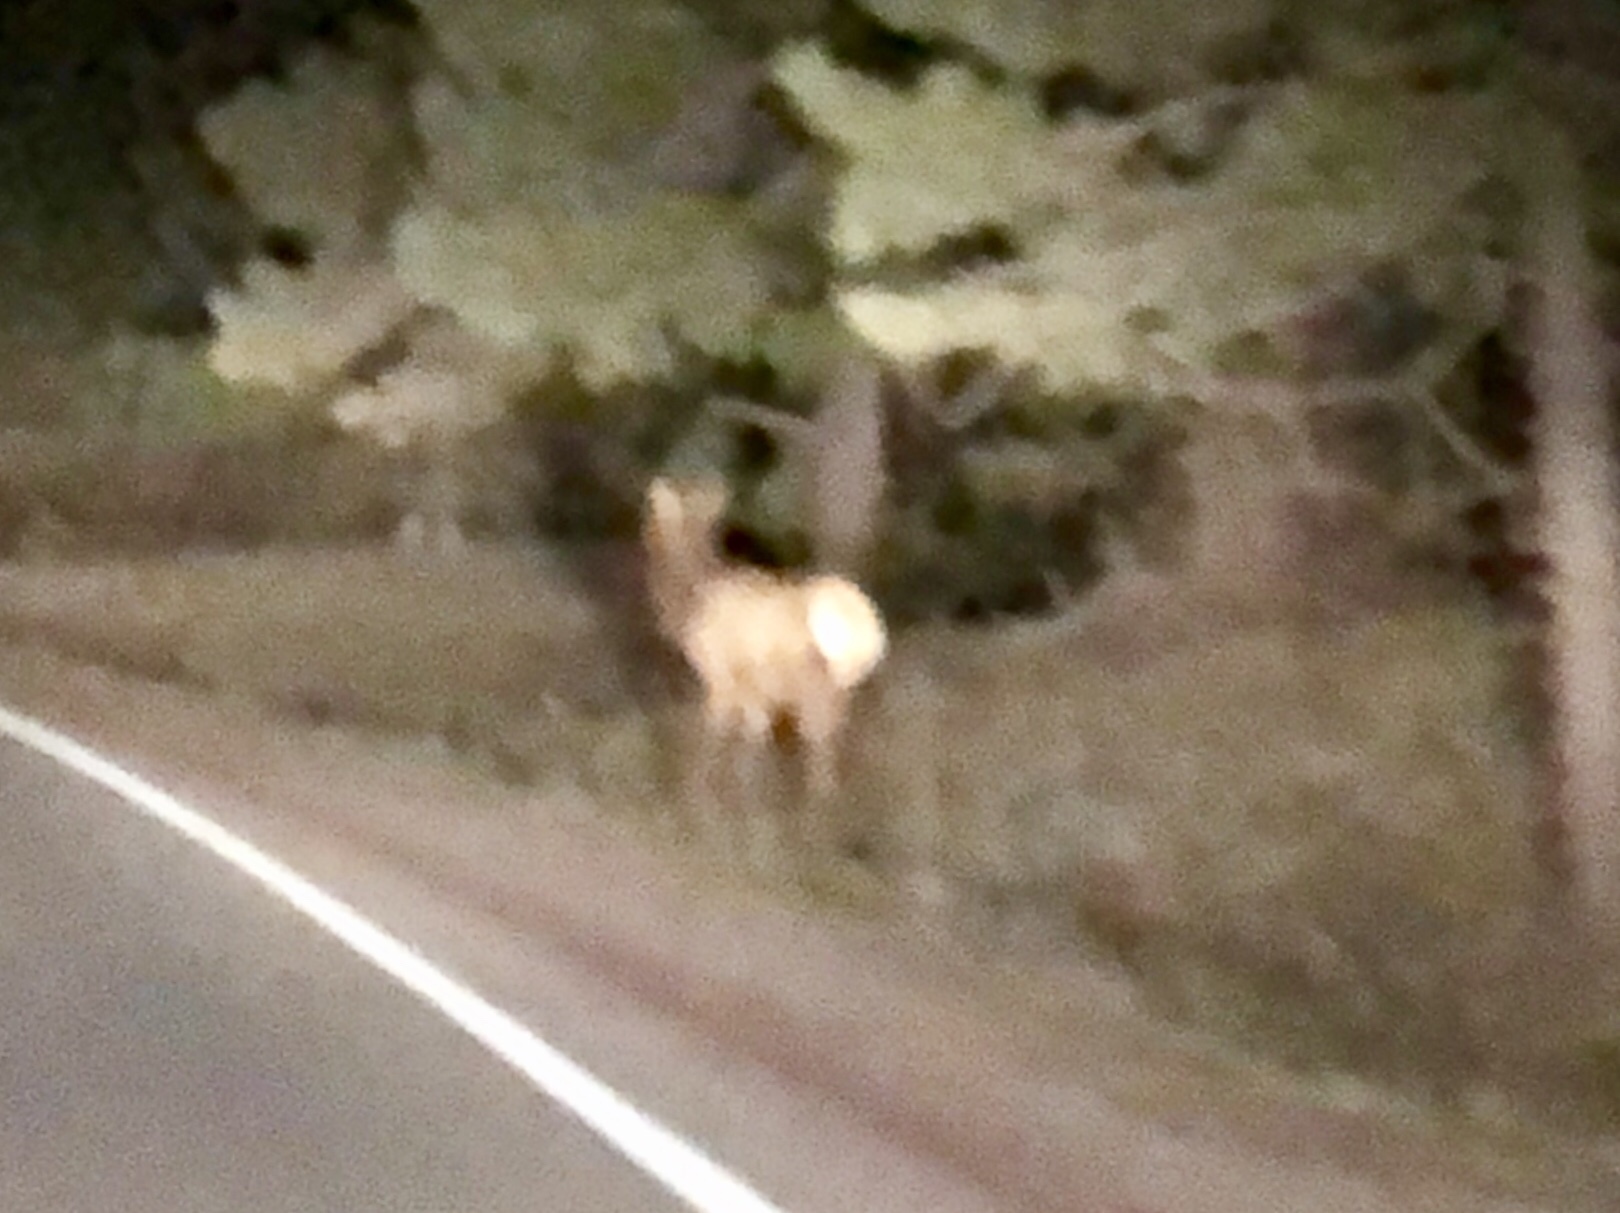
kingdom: Animalia
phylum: Chordata
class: Mammalia
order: Artiodactyla
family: Cervidae
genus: Cervus
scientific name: Cervus elaphus
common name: Red deer
